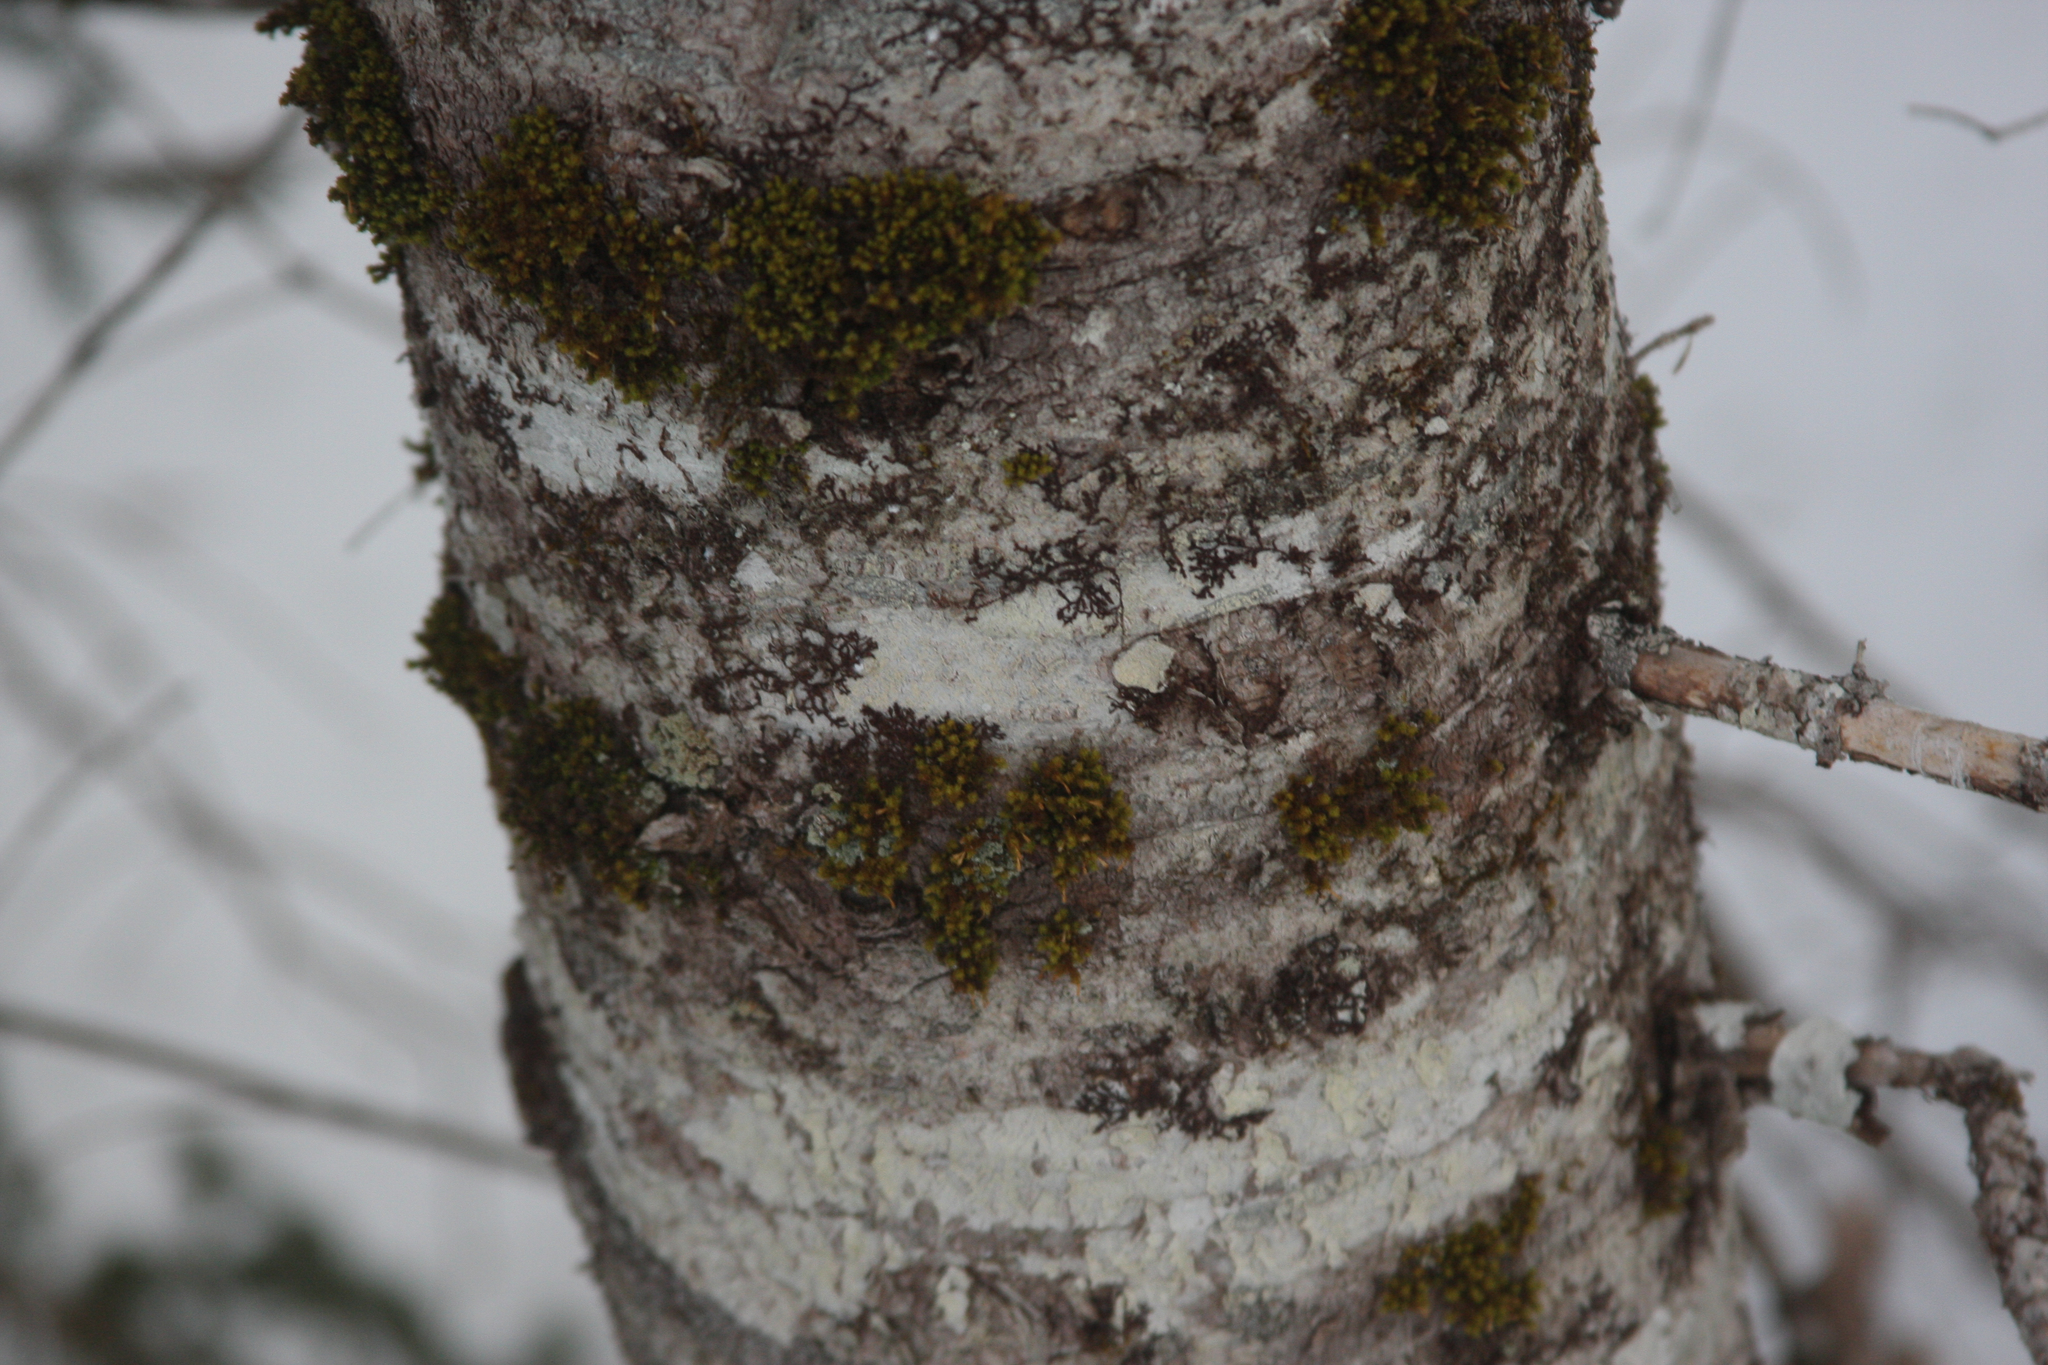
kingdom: Plantae
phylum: Bryophyta
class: Bryopsida
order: Orthotrichales
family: Orthotrichaceae
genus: Ulota
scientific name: Ulota crispa
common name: Crisped pincushion moss
